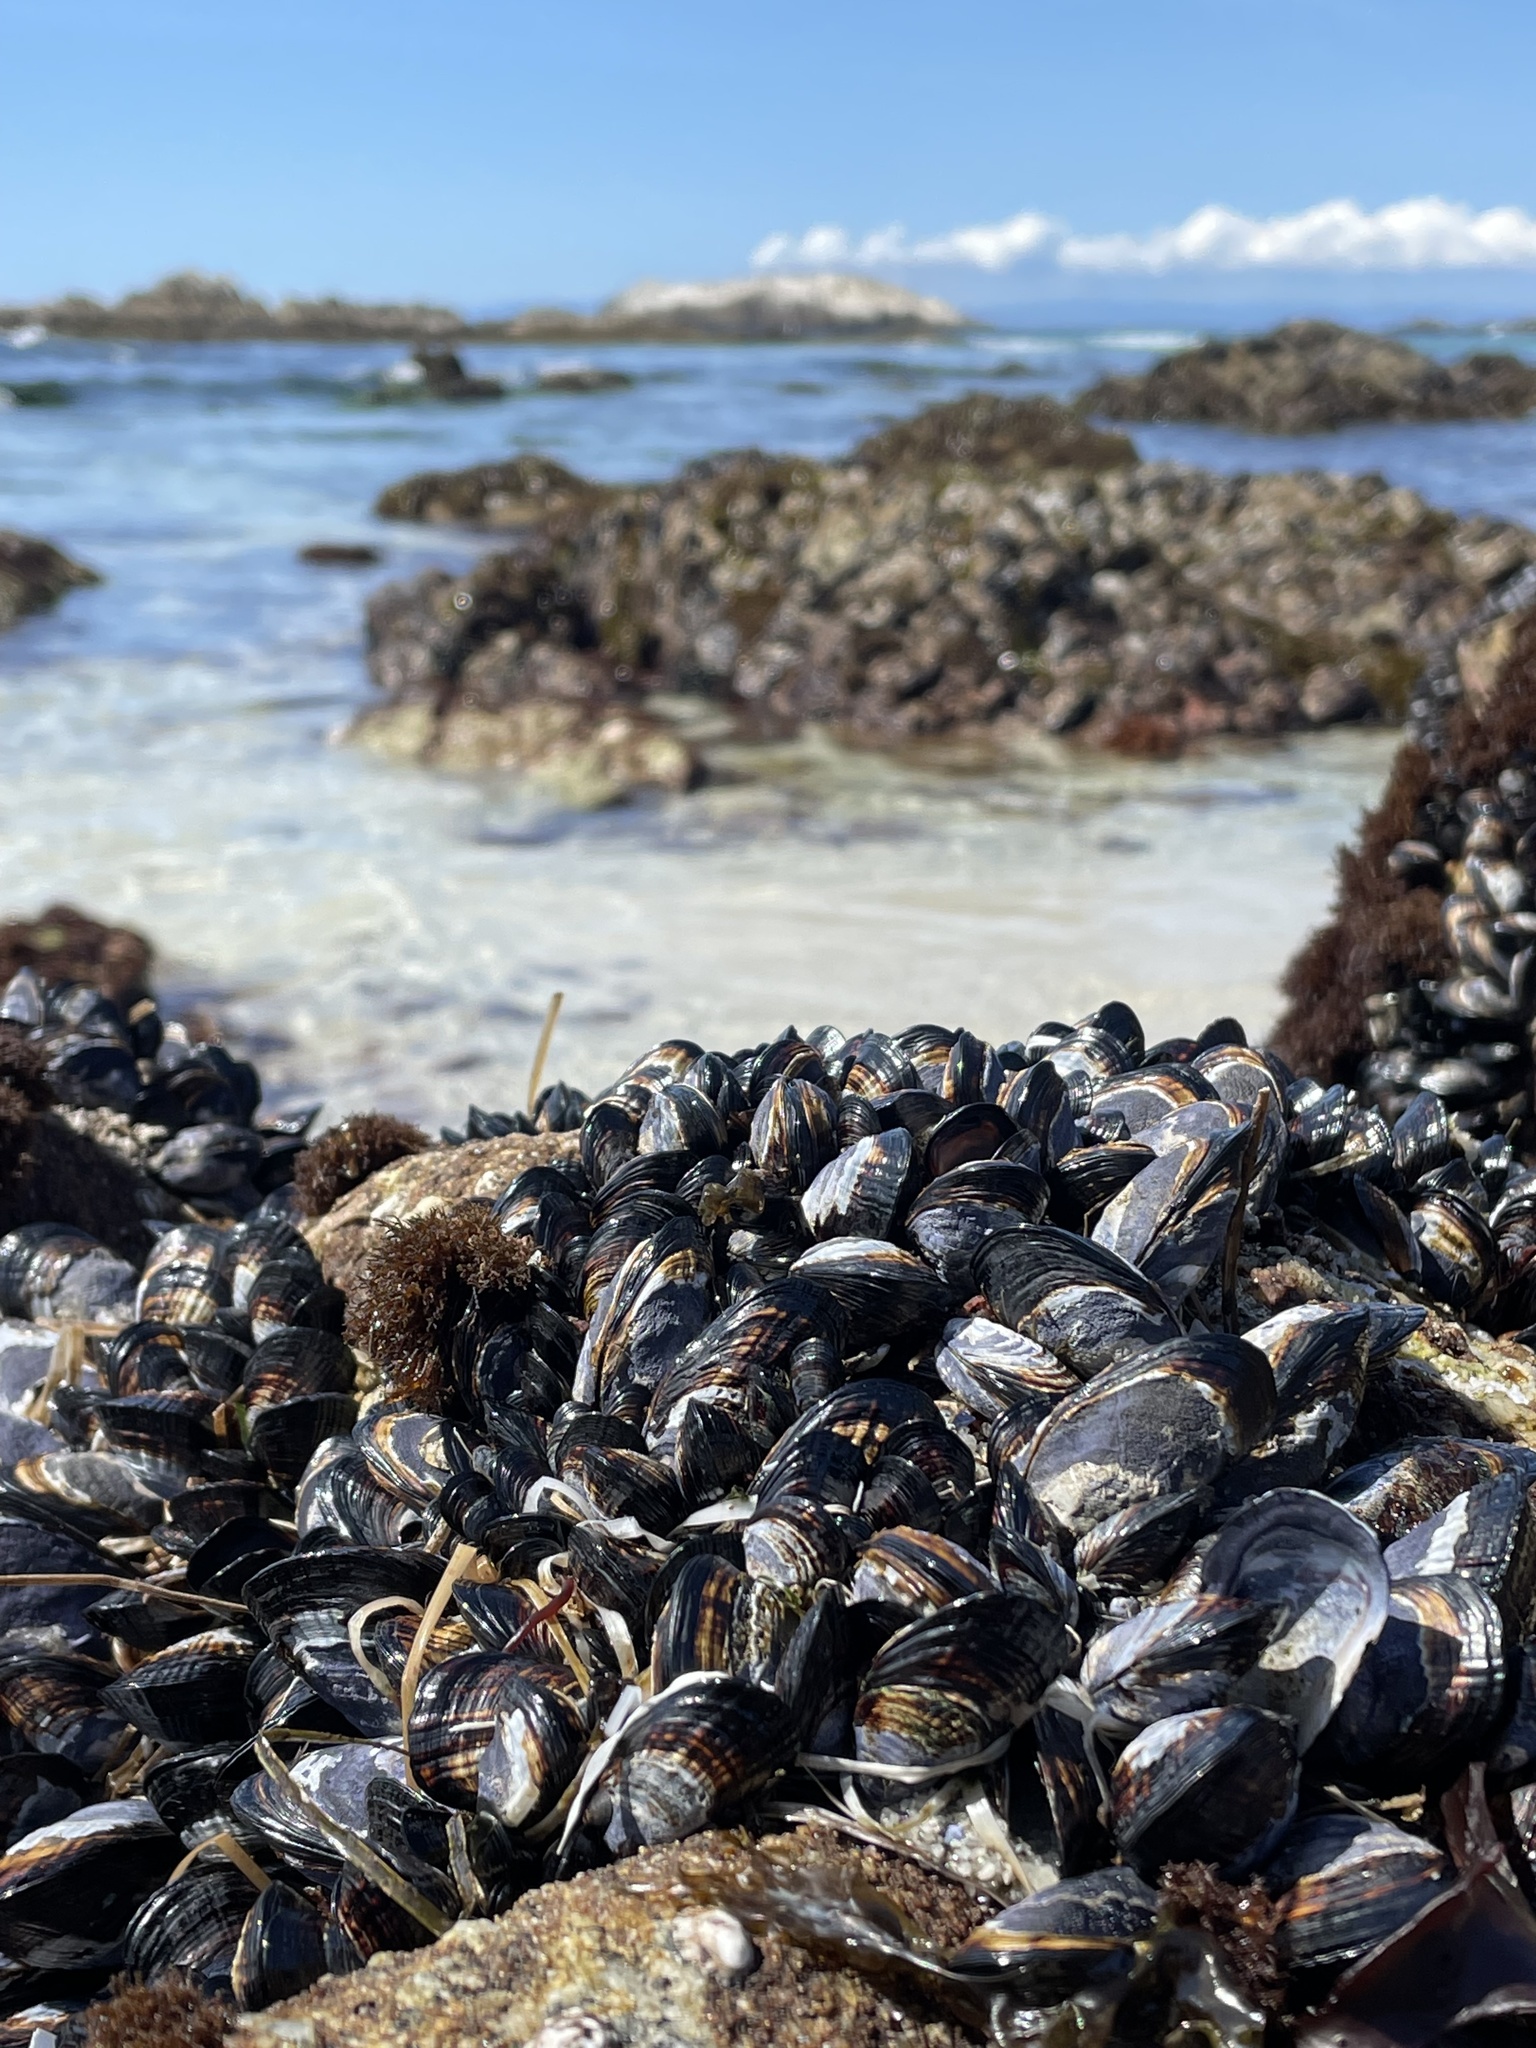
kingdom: Animalia
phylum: Mollusca
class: Bivalvia
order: Mytilida
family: Mytilidae
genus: Mytilus
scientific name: Mytilus californianus
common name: California mussel
